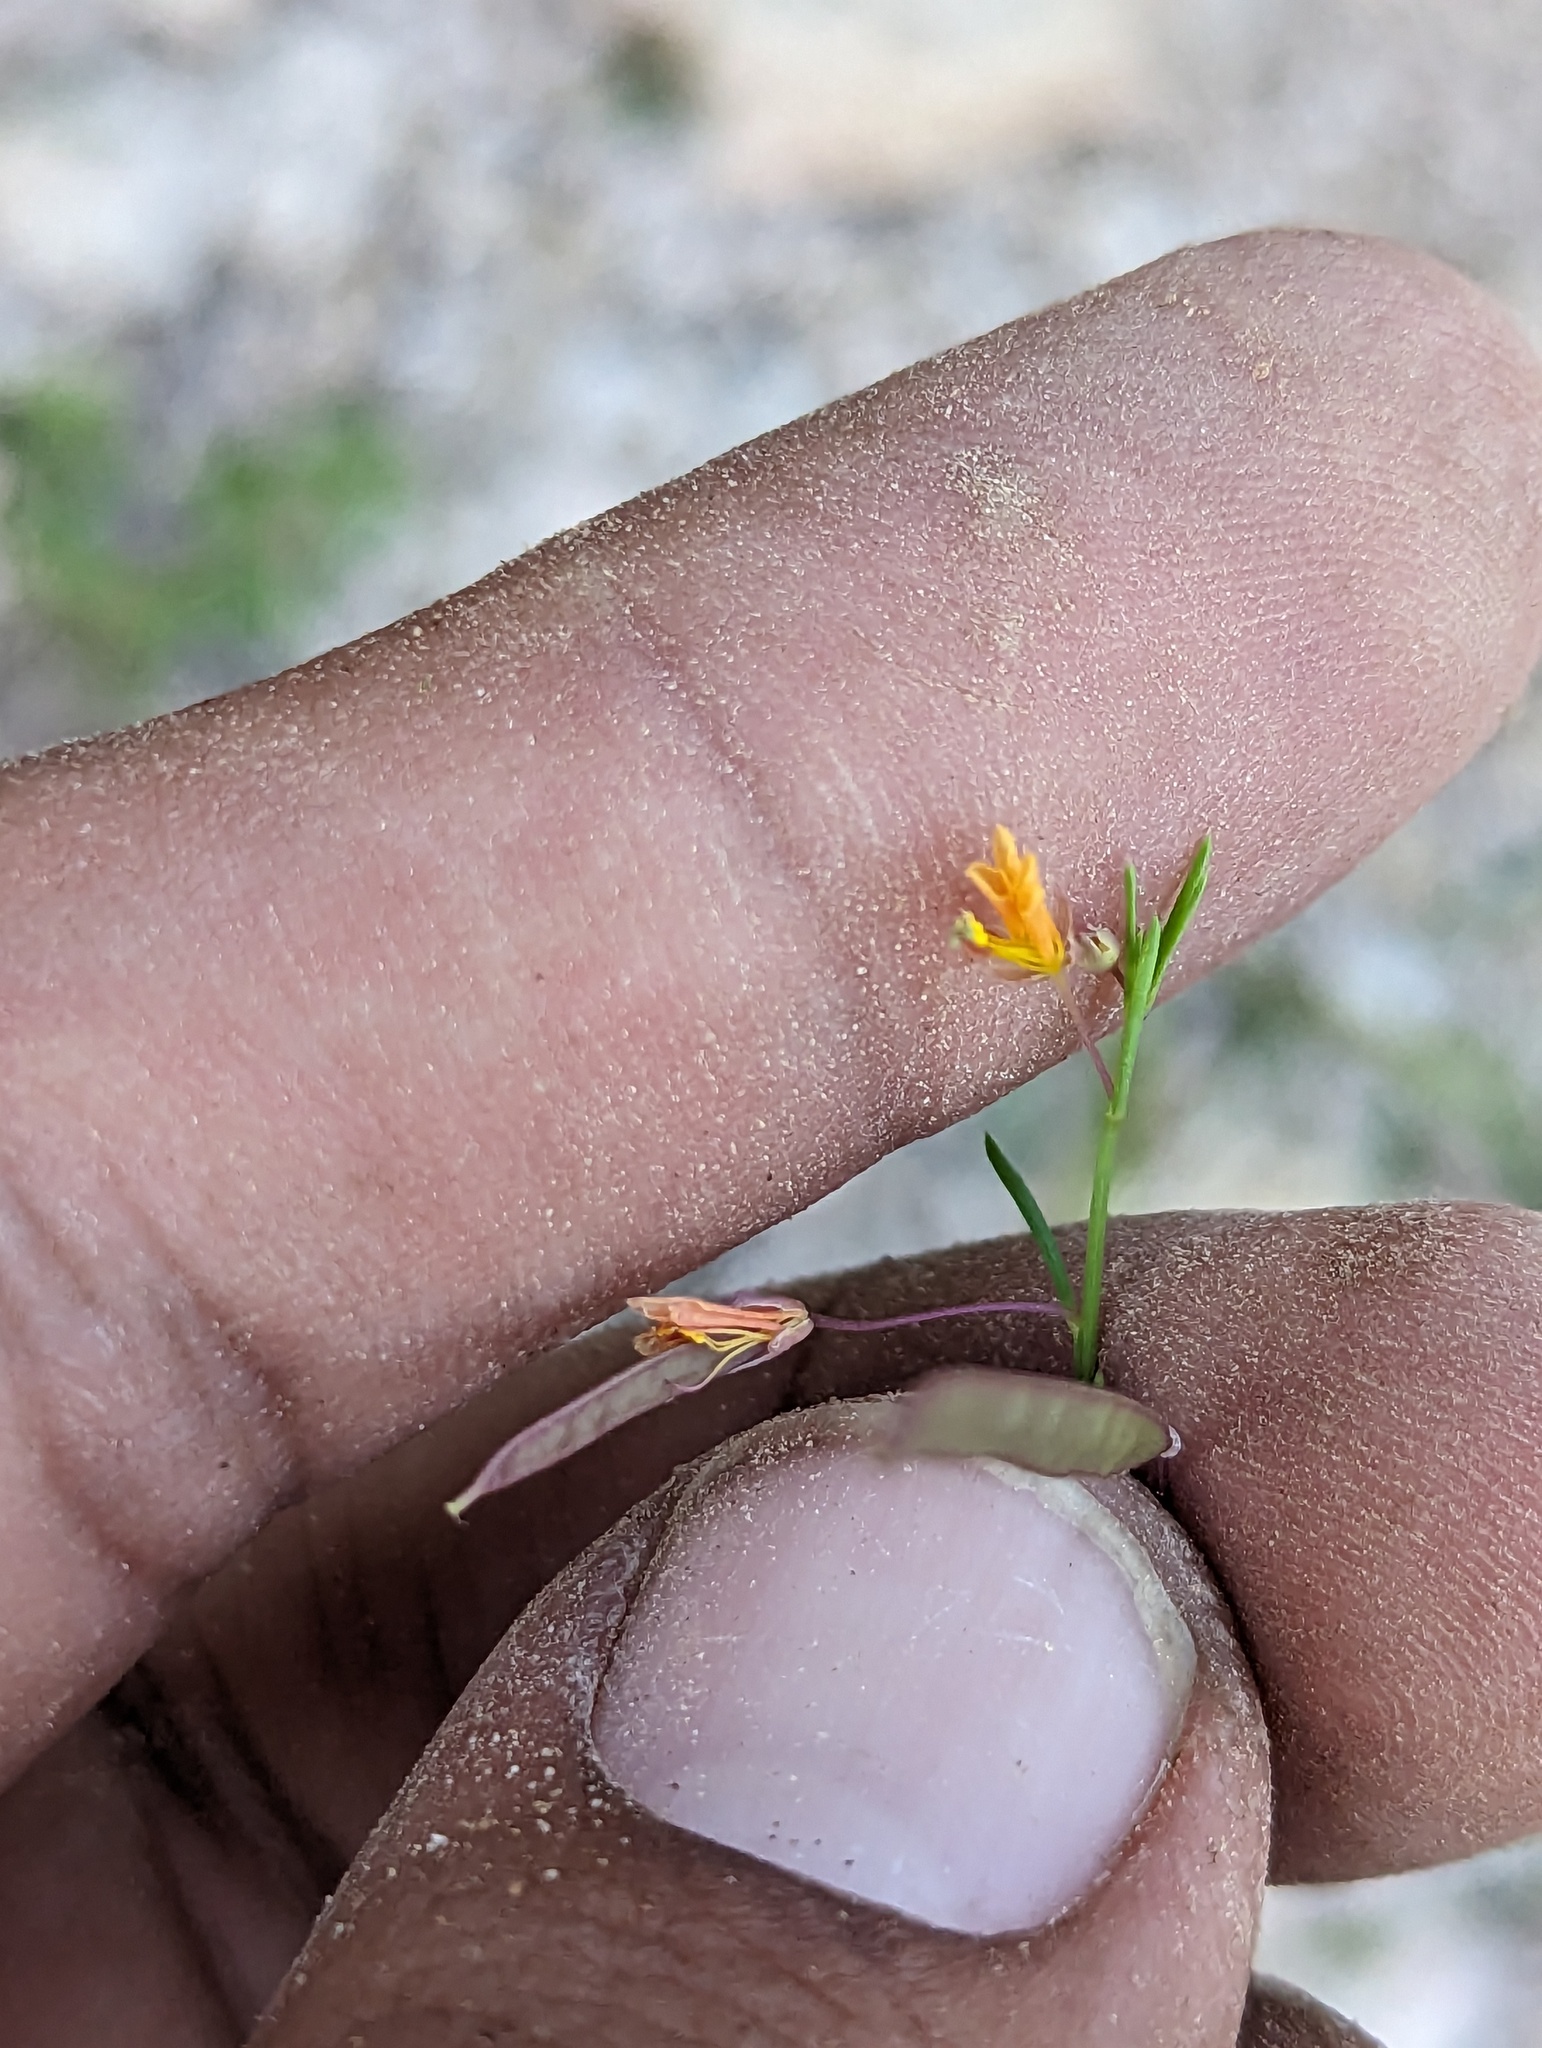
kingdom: Plantae
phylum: Tracheophyta
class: Magnoliopsida
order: Brassicales
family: Cleomaceae
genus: Physostemon
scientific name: Physostemon guianensis
